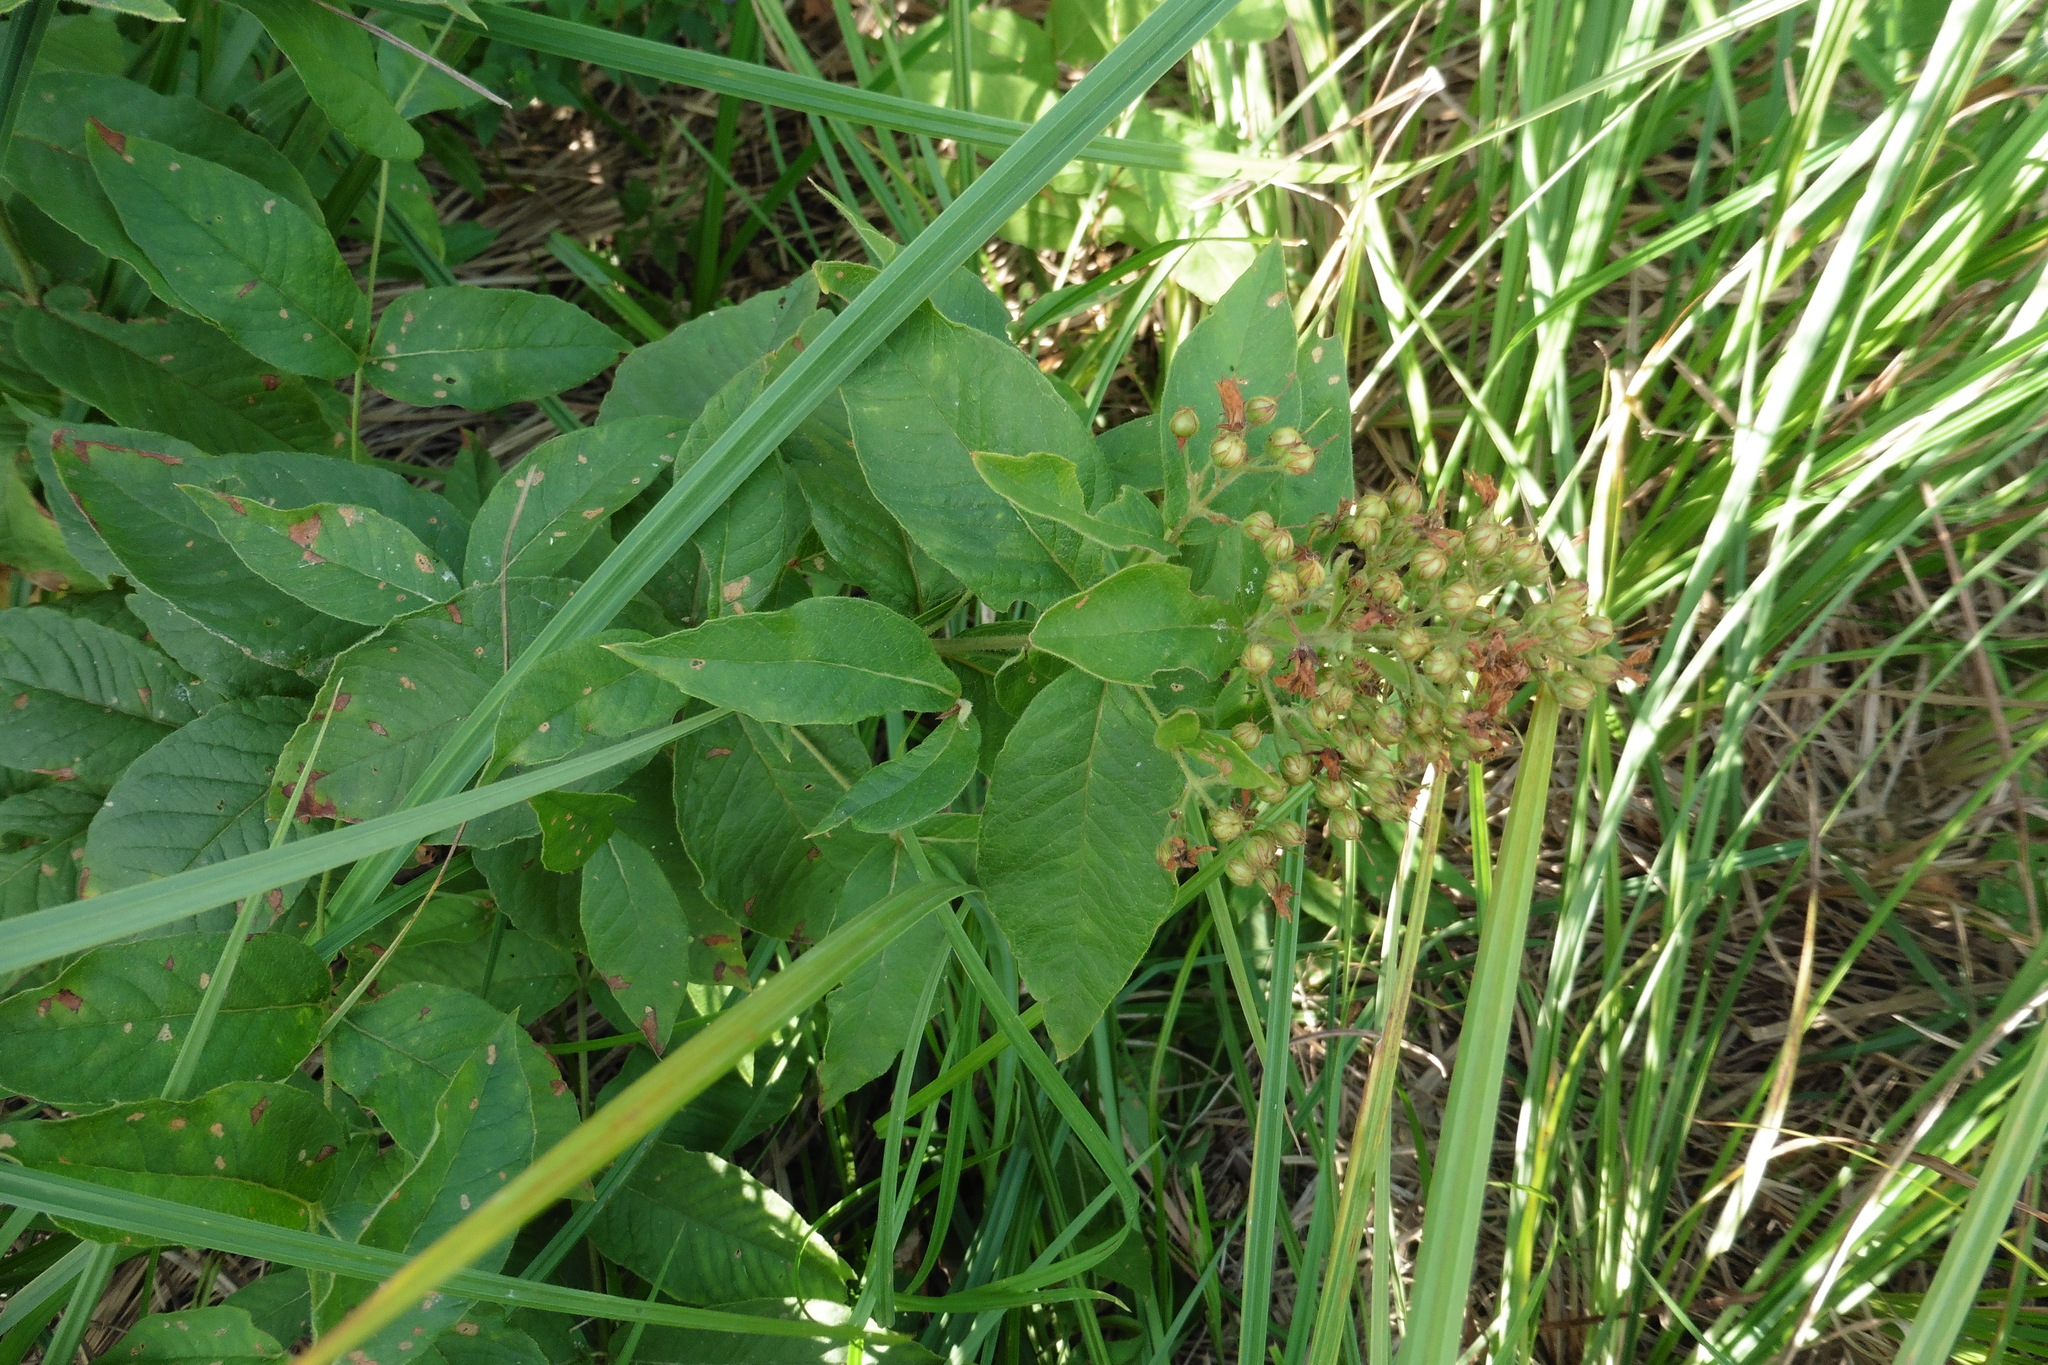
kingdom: Plantae
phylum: Tracheophyta
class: Magnoliopsida
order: Ericales
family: Primulaceae
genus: Lysimachia
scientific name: Lysimachia vulgaris
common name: Yellow loosestrife
